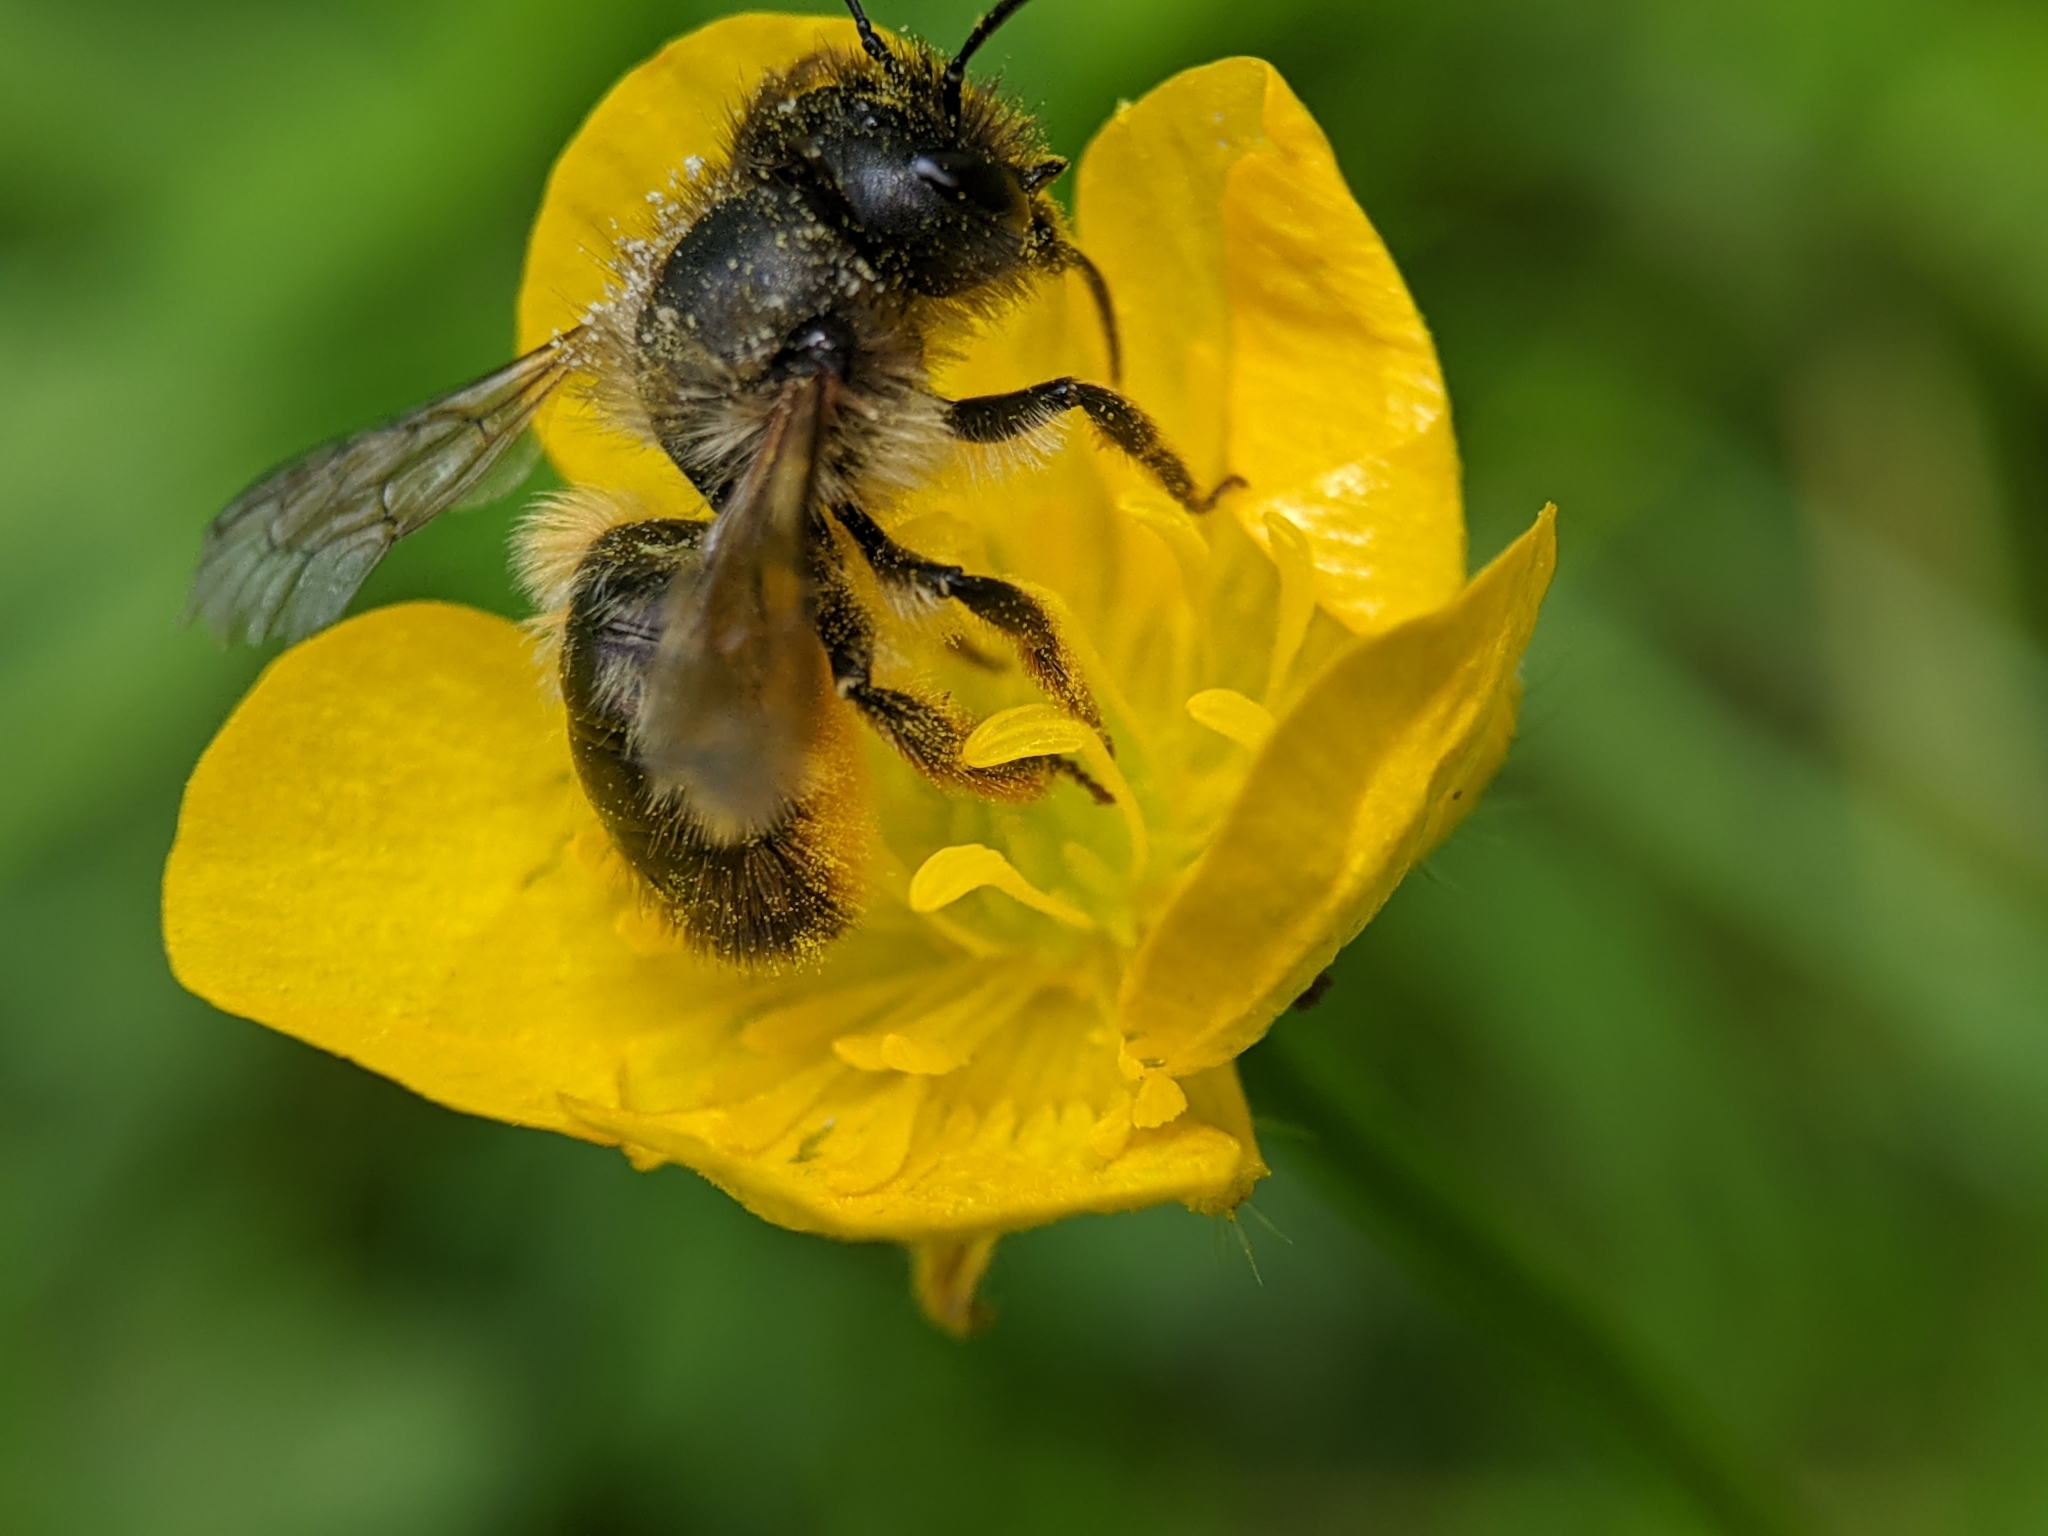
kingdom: Animalia
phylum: Arthropoda
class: Insecta
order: Hymenoptera
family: Megachilidae
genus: Osmia
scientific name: Osmia bicornis
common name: Red mason bee
